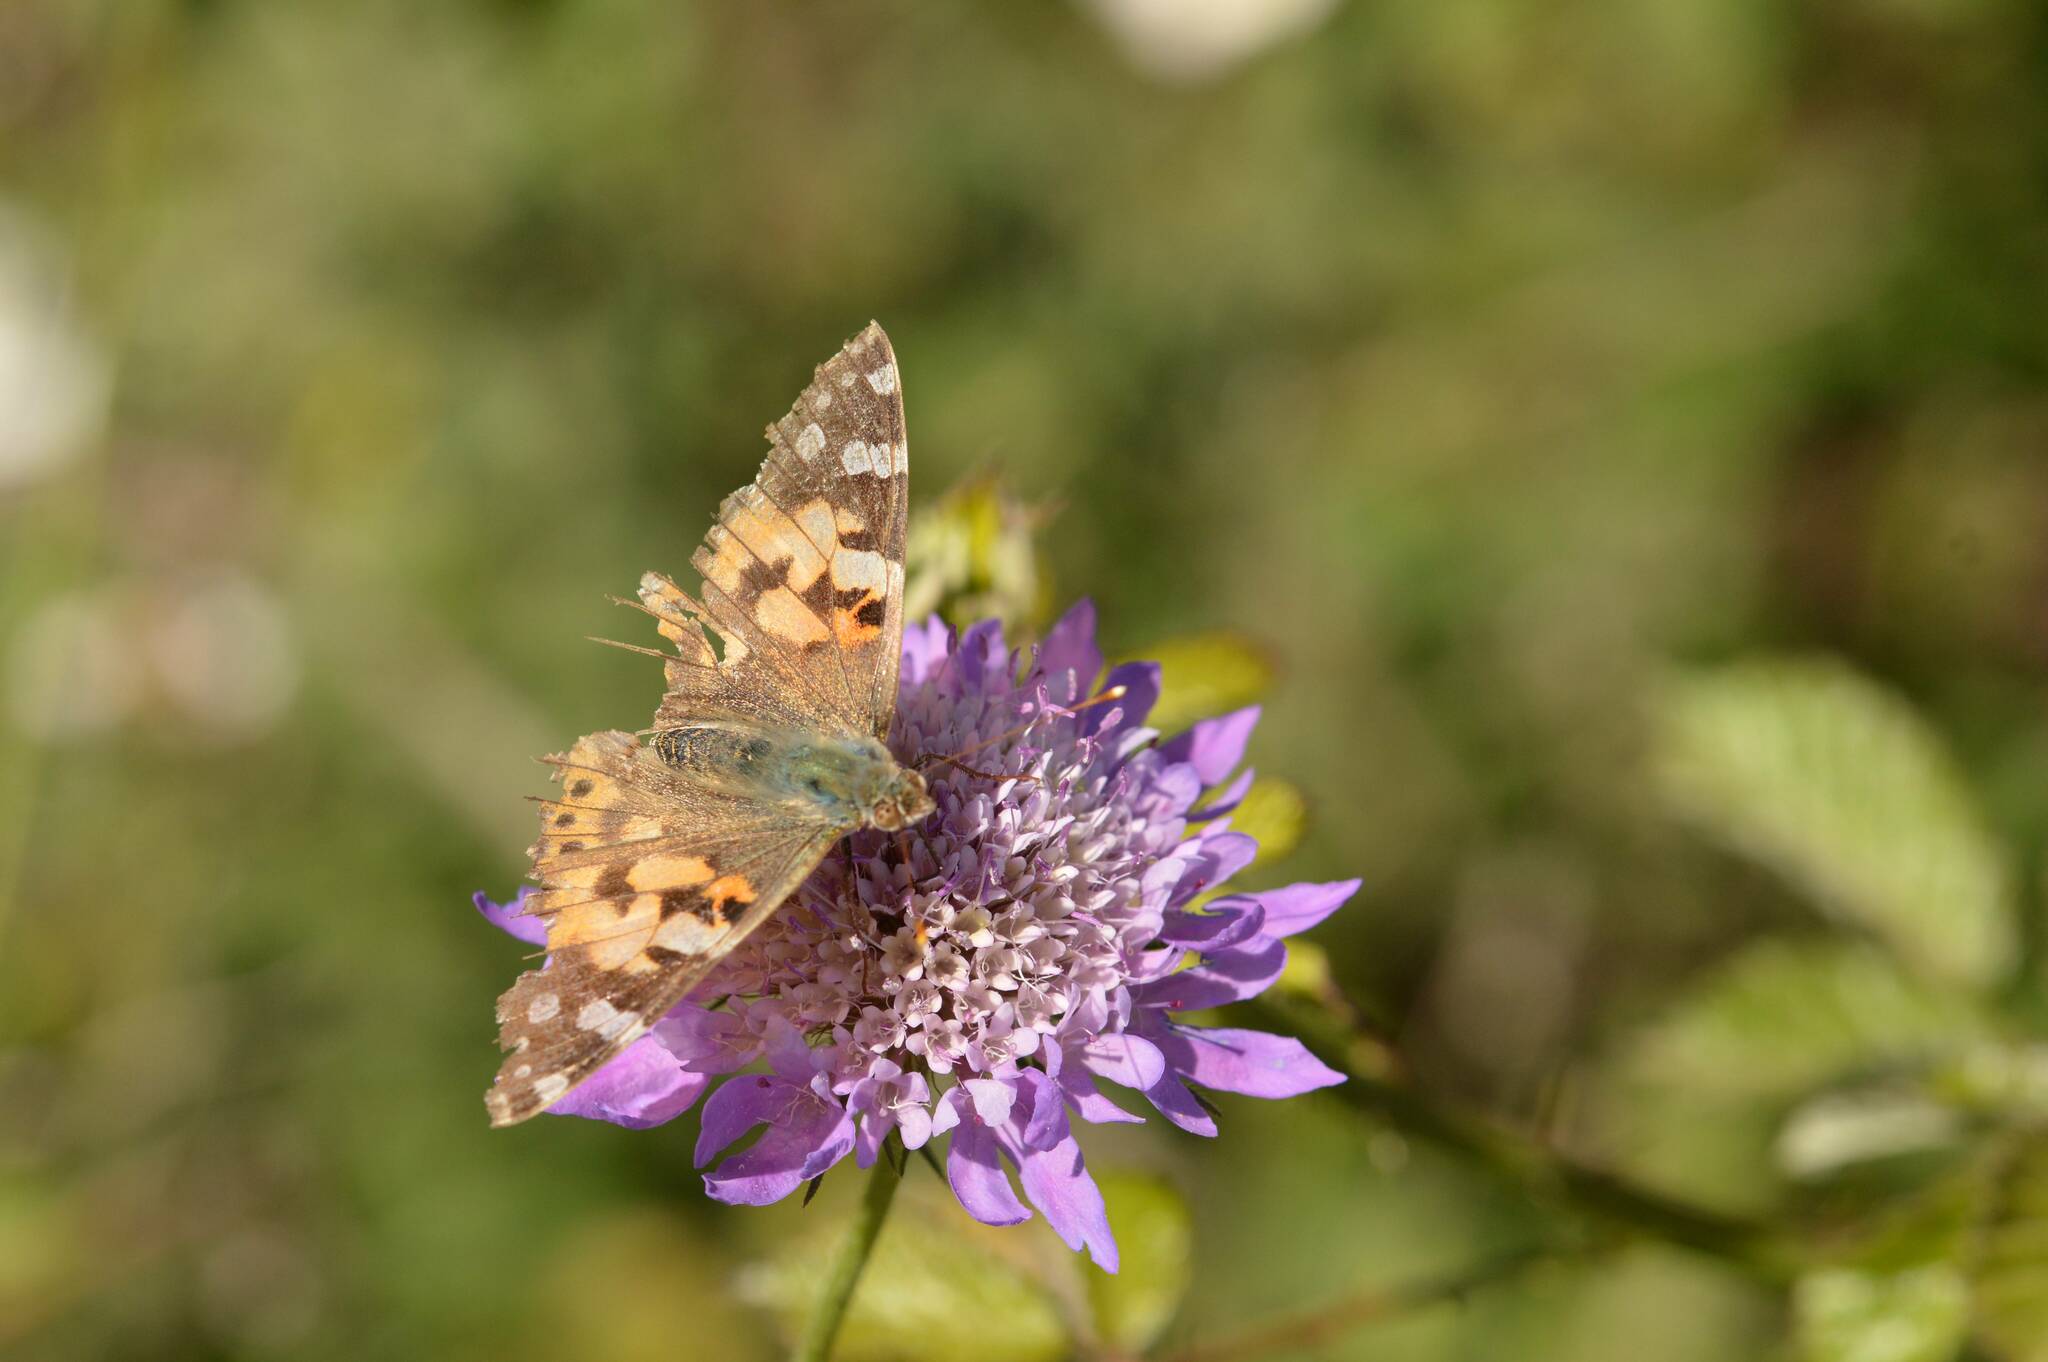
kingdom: Animalia
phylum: Arthropoda
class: Insecta
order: Lepidoptera
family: Nymphalidae
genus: Vanessa
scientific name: Vanessa cardui
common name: Painted lady
